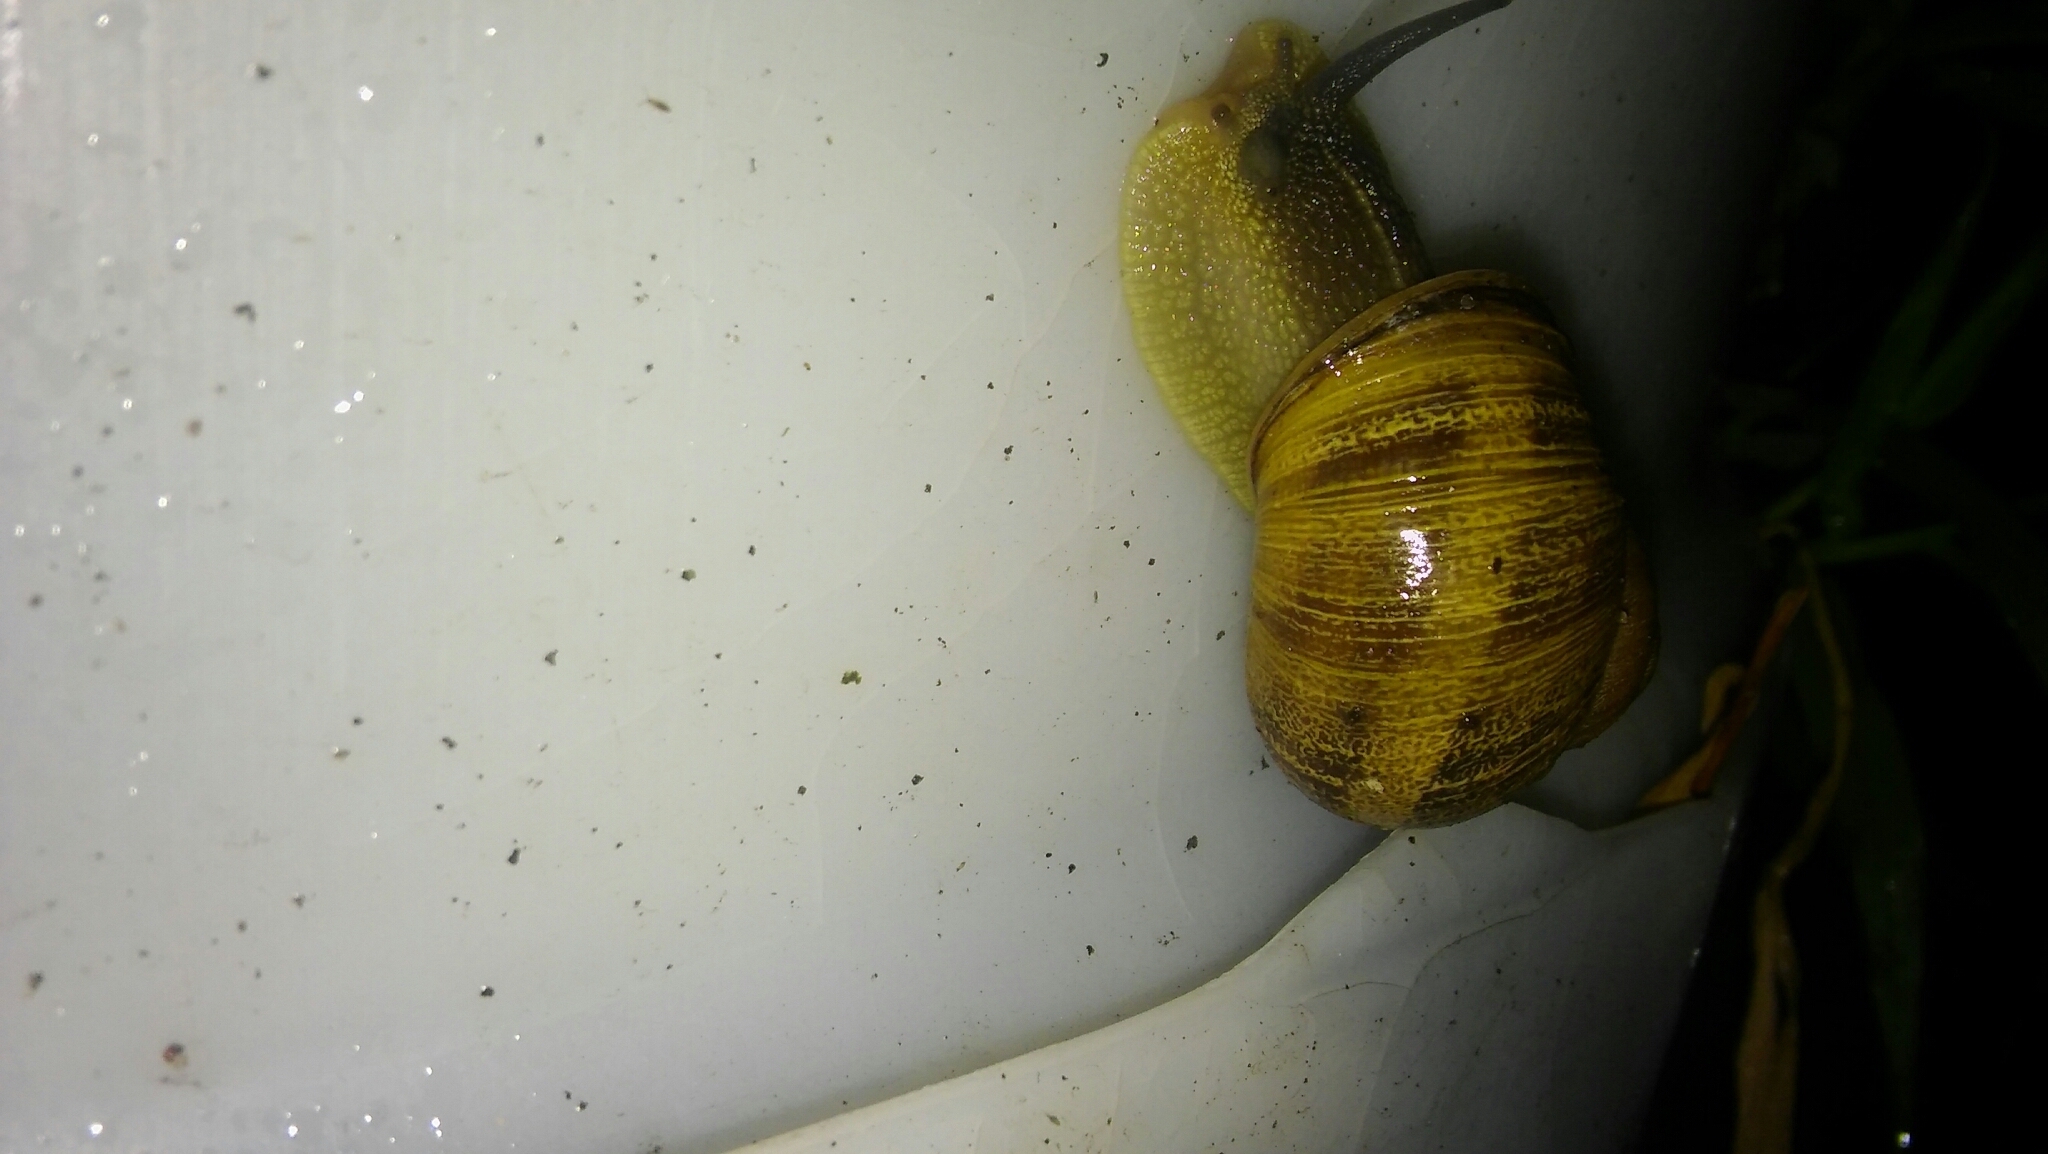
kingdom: Animalia
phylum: Mollusca
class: Gastropoda
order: Stylommatophora
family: Helicidae
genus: Cornu
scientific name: Cornu aspersum
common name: Brown garden snail
